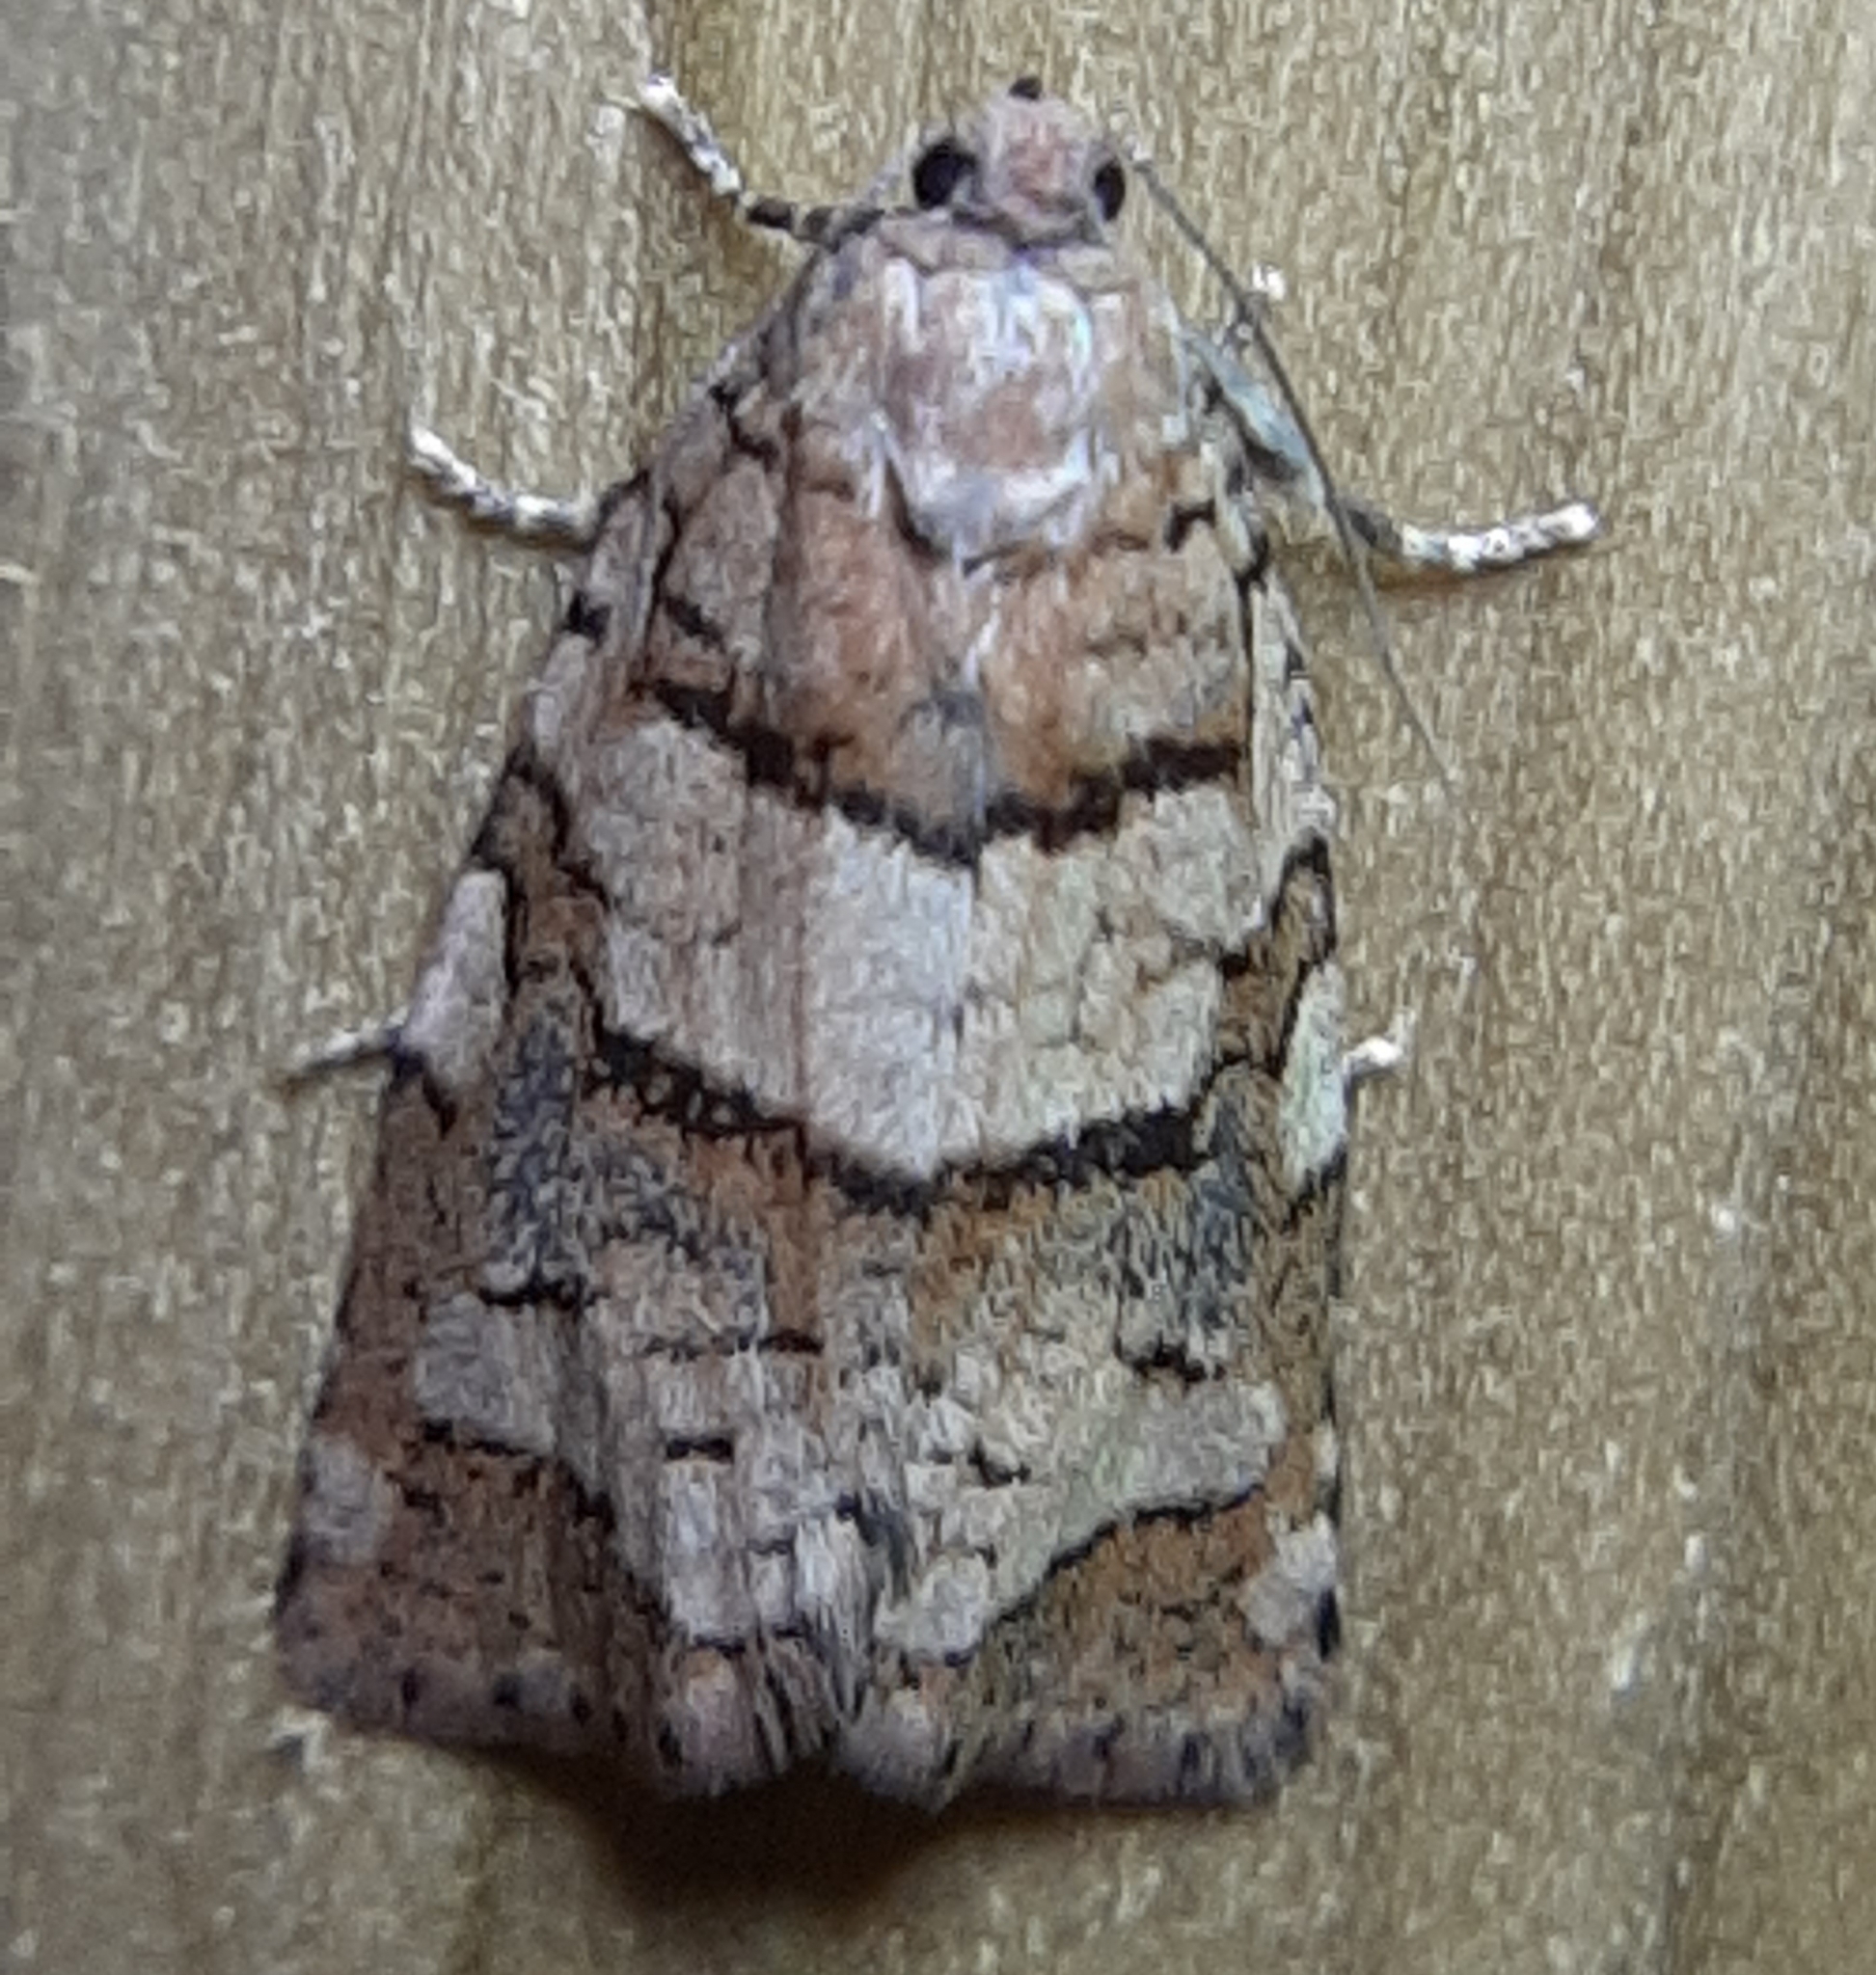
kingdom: Animalia
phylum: Arthropoda
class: Insecta
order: Lepidoptera
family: Tortricidae
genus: Archips
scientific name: Archips alberta
